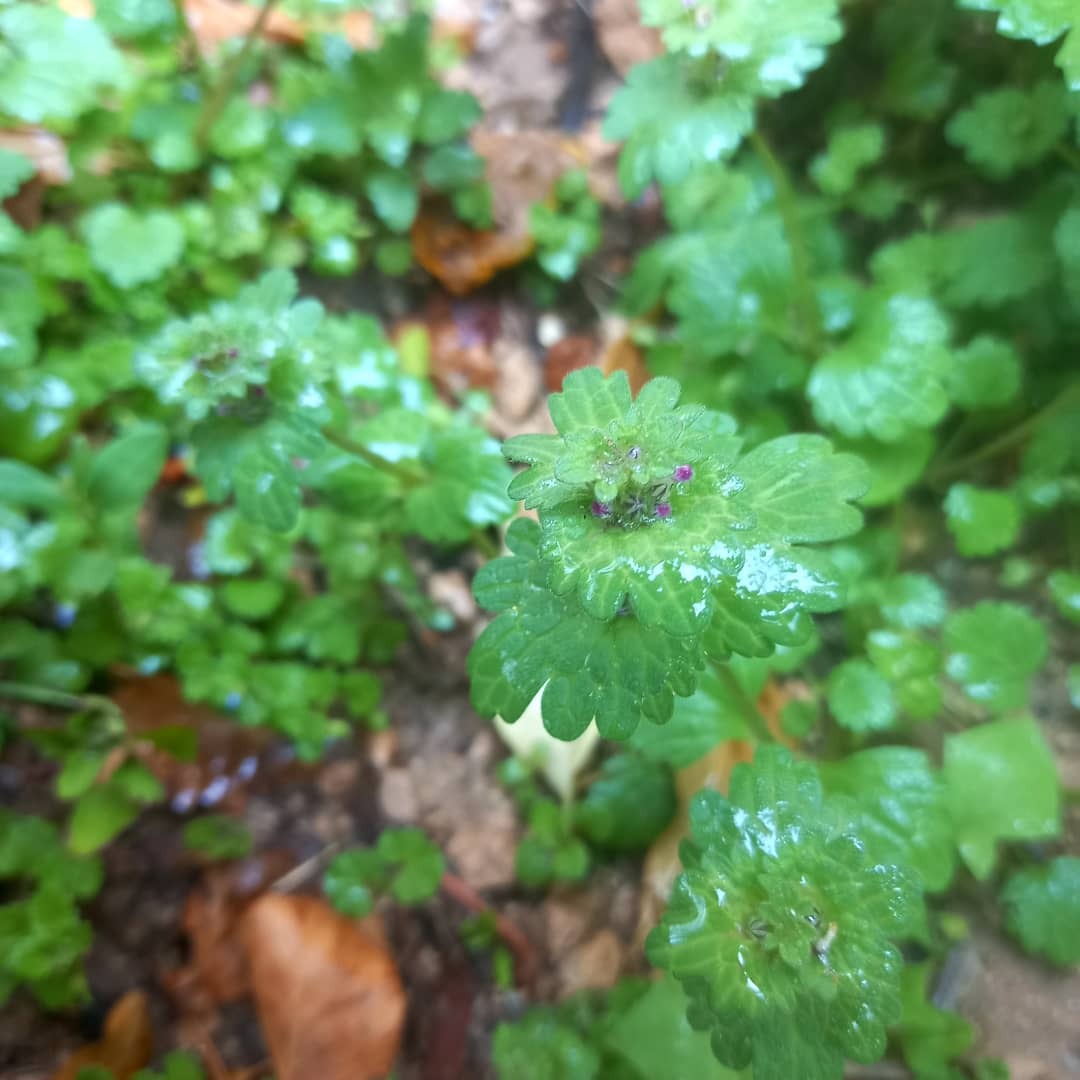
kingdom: Plantae
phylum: Tracheophyta
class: Magnoliopsida
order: Lamiales
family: Lamiaceae
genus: Lamium
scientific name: Lamium amplexicaule
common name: Henbit dead-nettle
